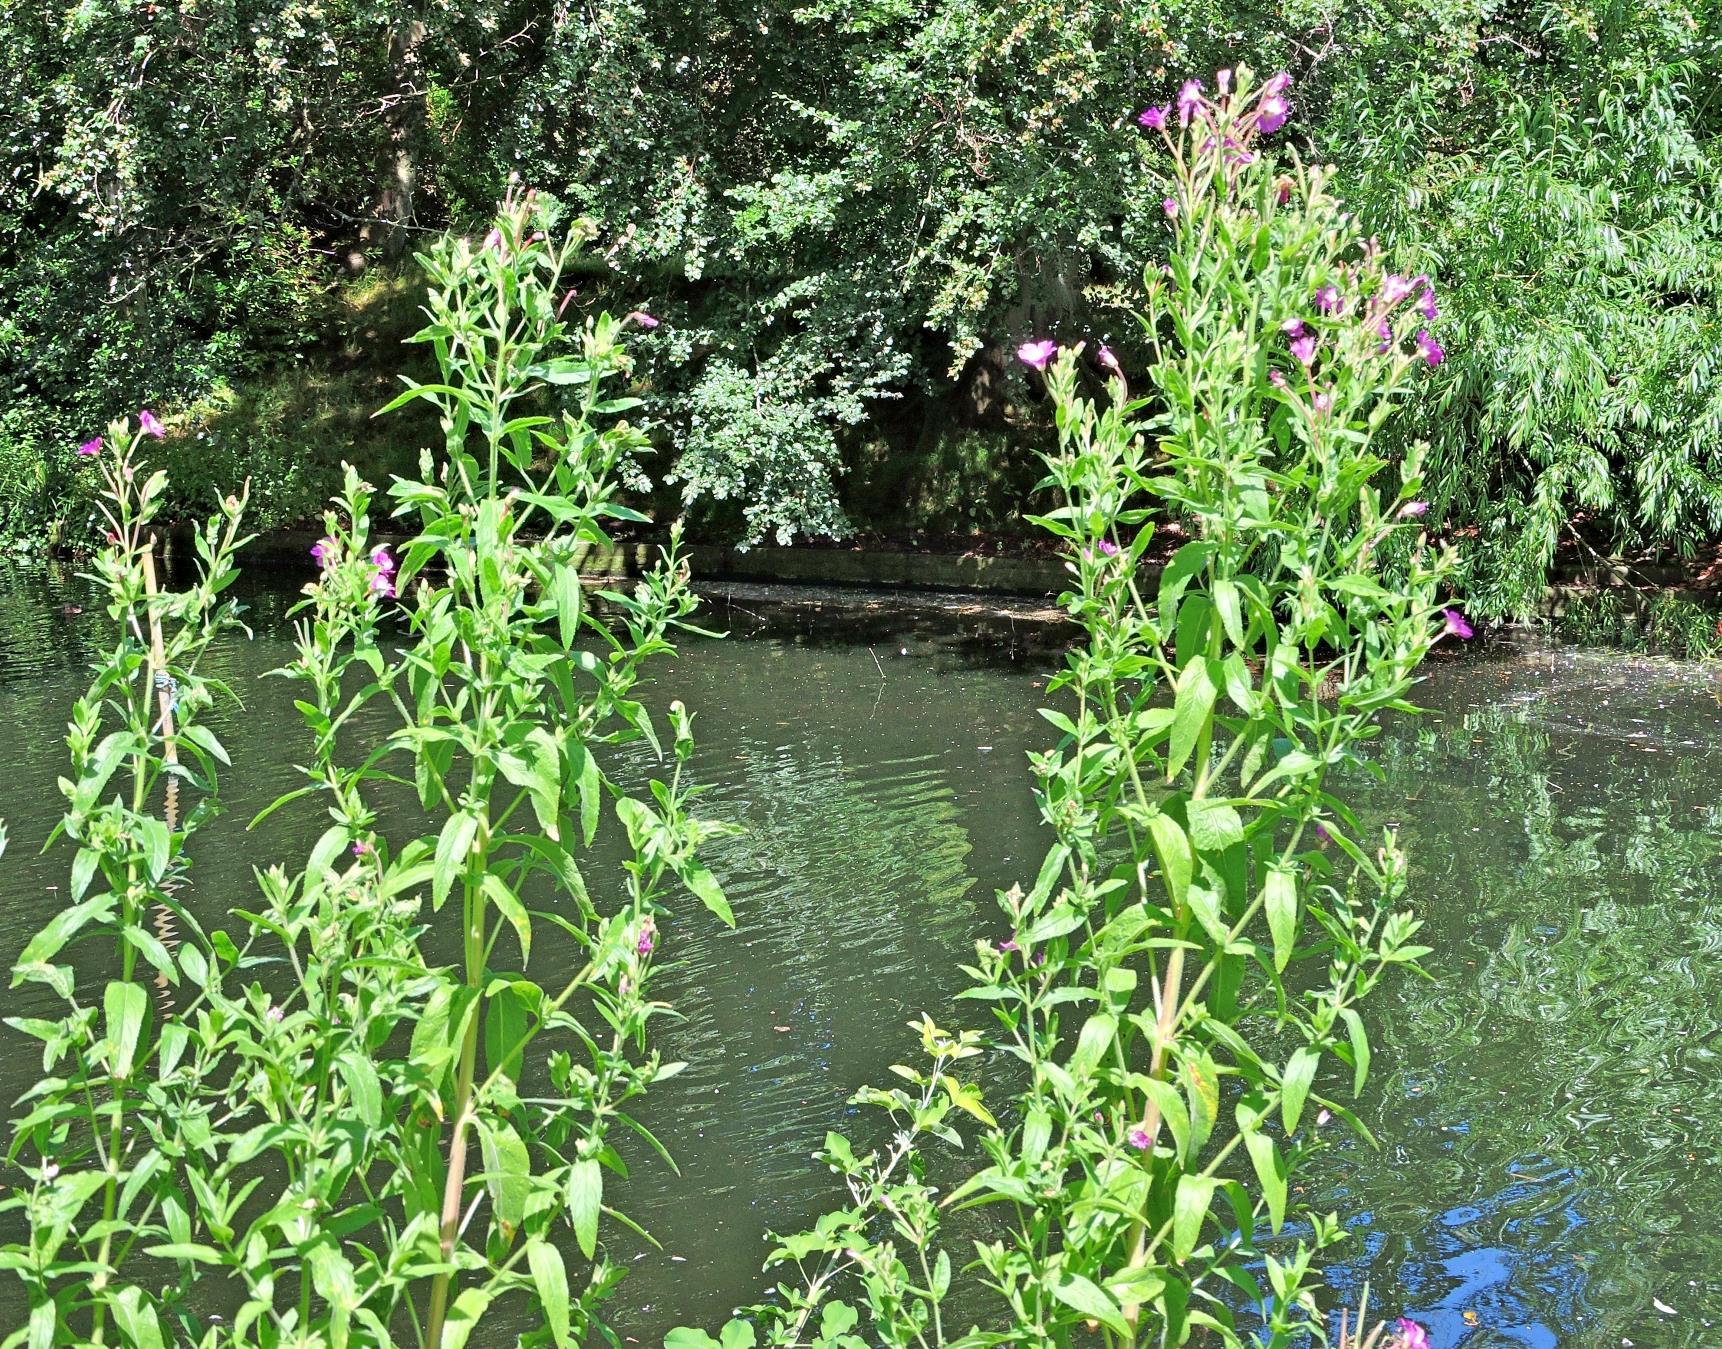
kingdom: Plantae
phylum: Tracheophyta
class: Magnoliopsida
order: Myrtales
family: Onagraceae
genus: Epilobium
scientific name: Epilobium hirsutum
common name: Great willowherb
